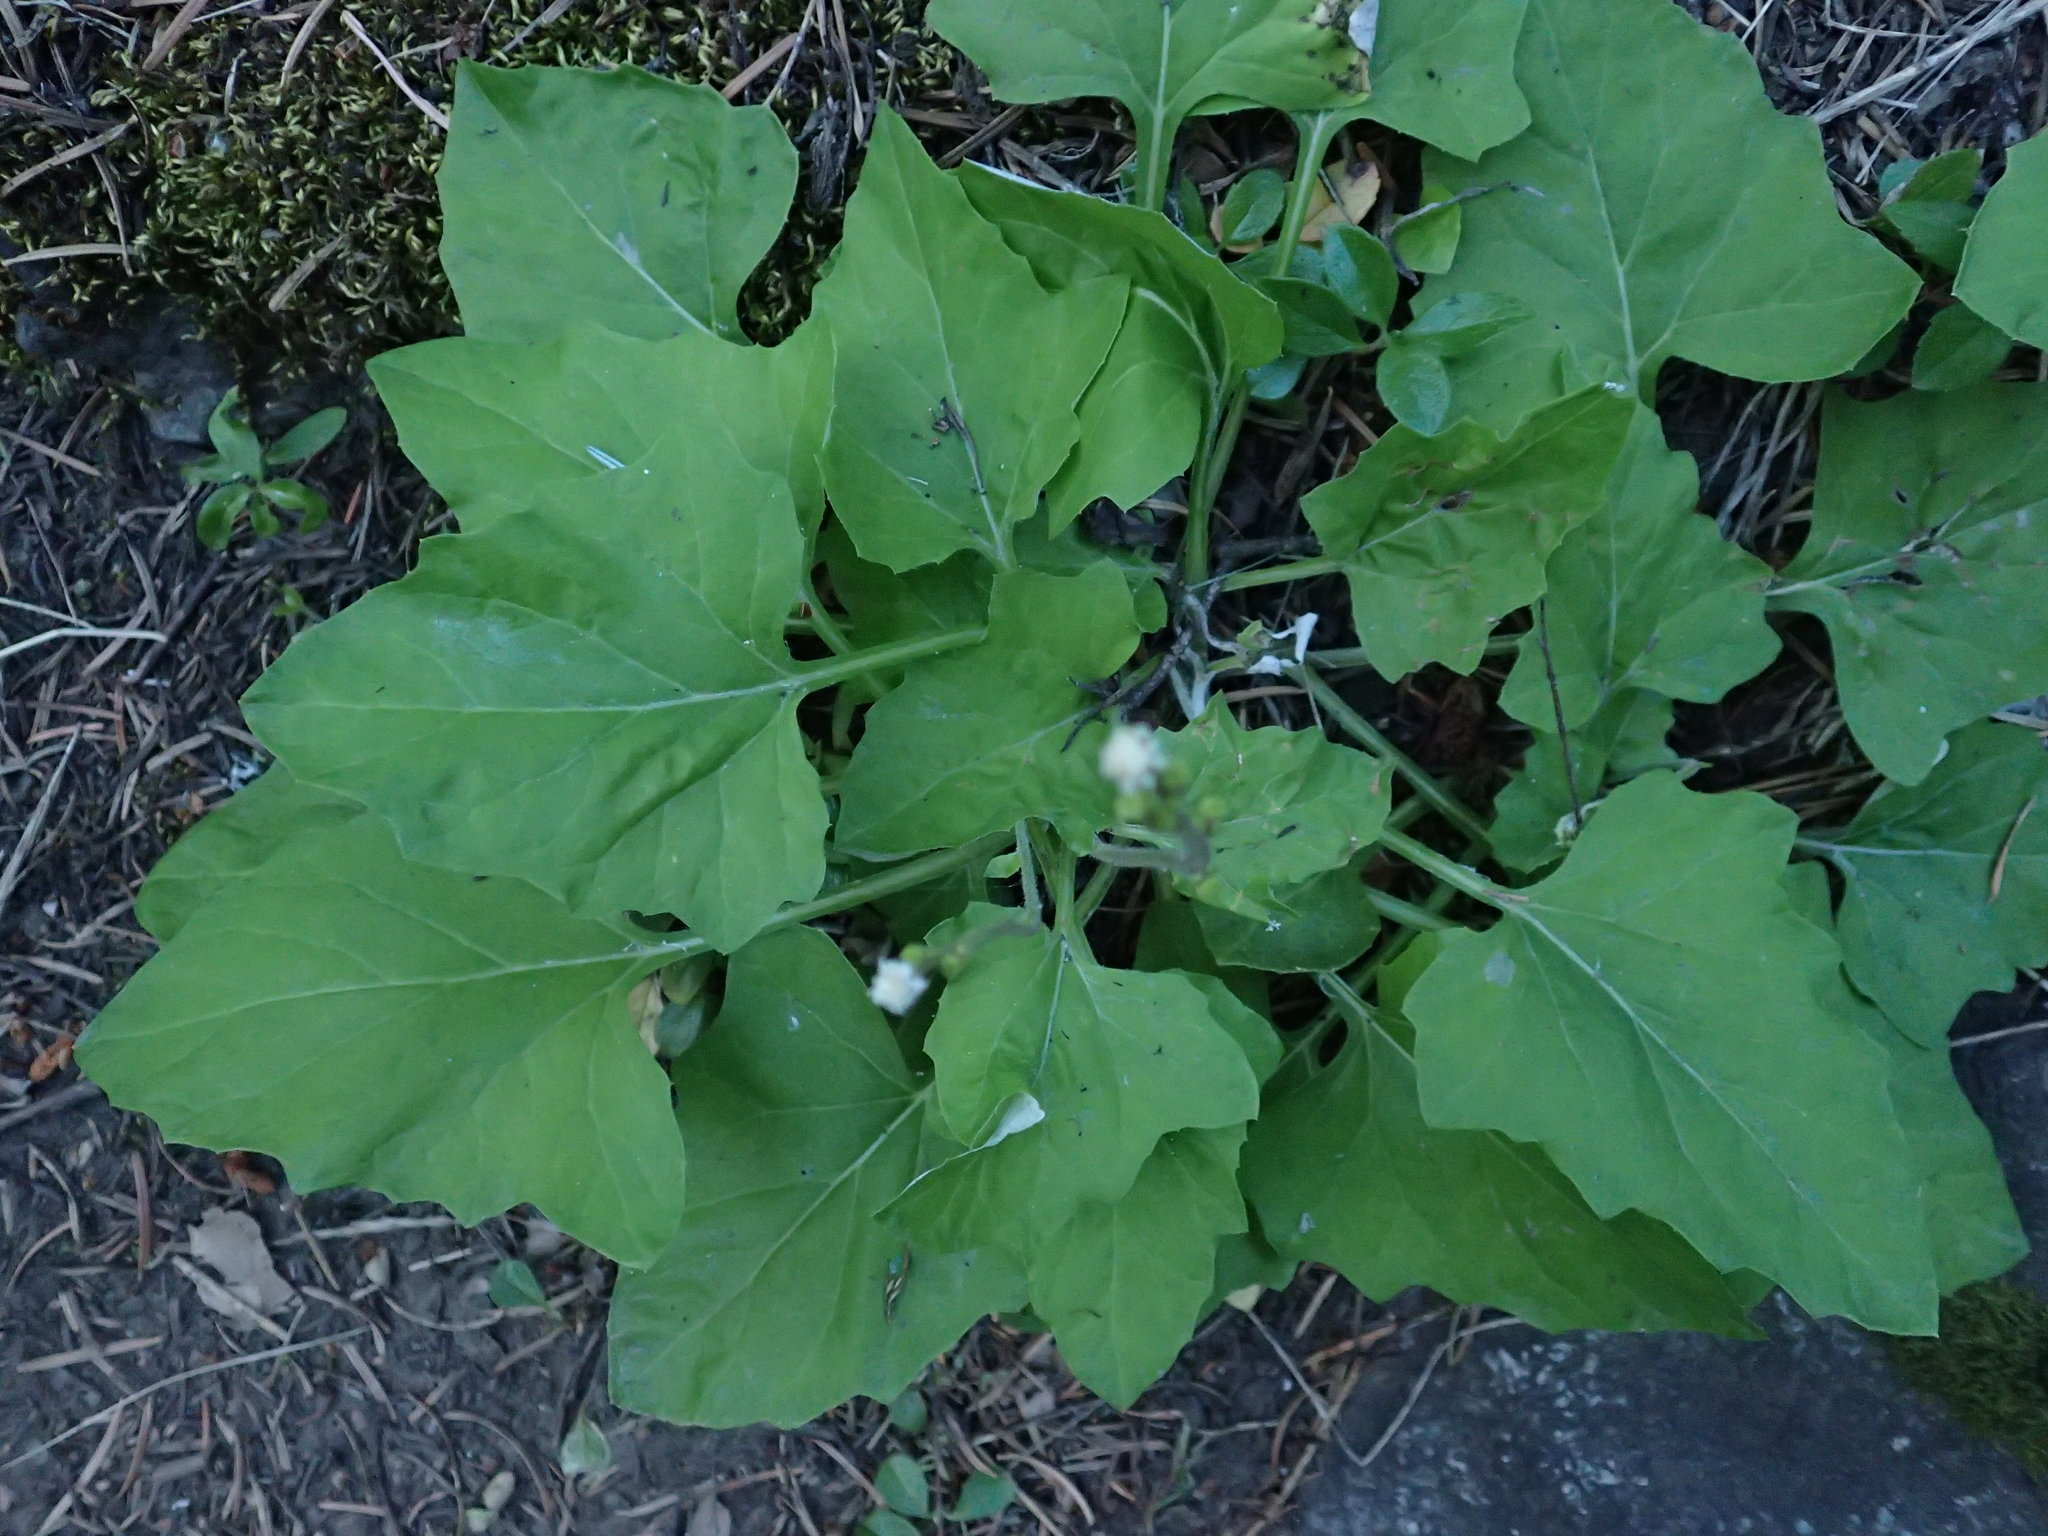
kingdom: Plantae
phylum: Tracheophyta
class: Magnoliopsida
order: Asterales
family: Asteraceae
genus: Adenocaulon
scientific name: Adenocaulon bicolor
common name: Trailplant
